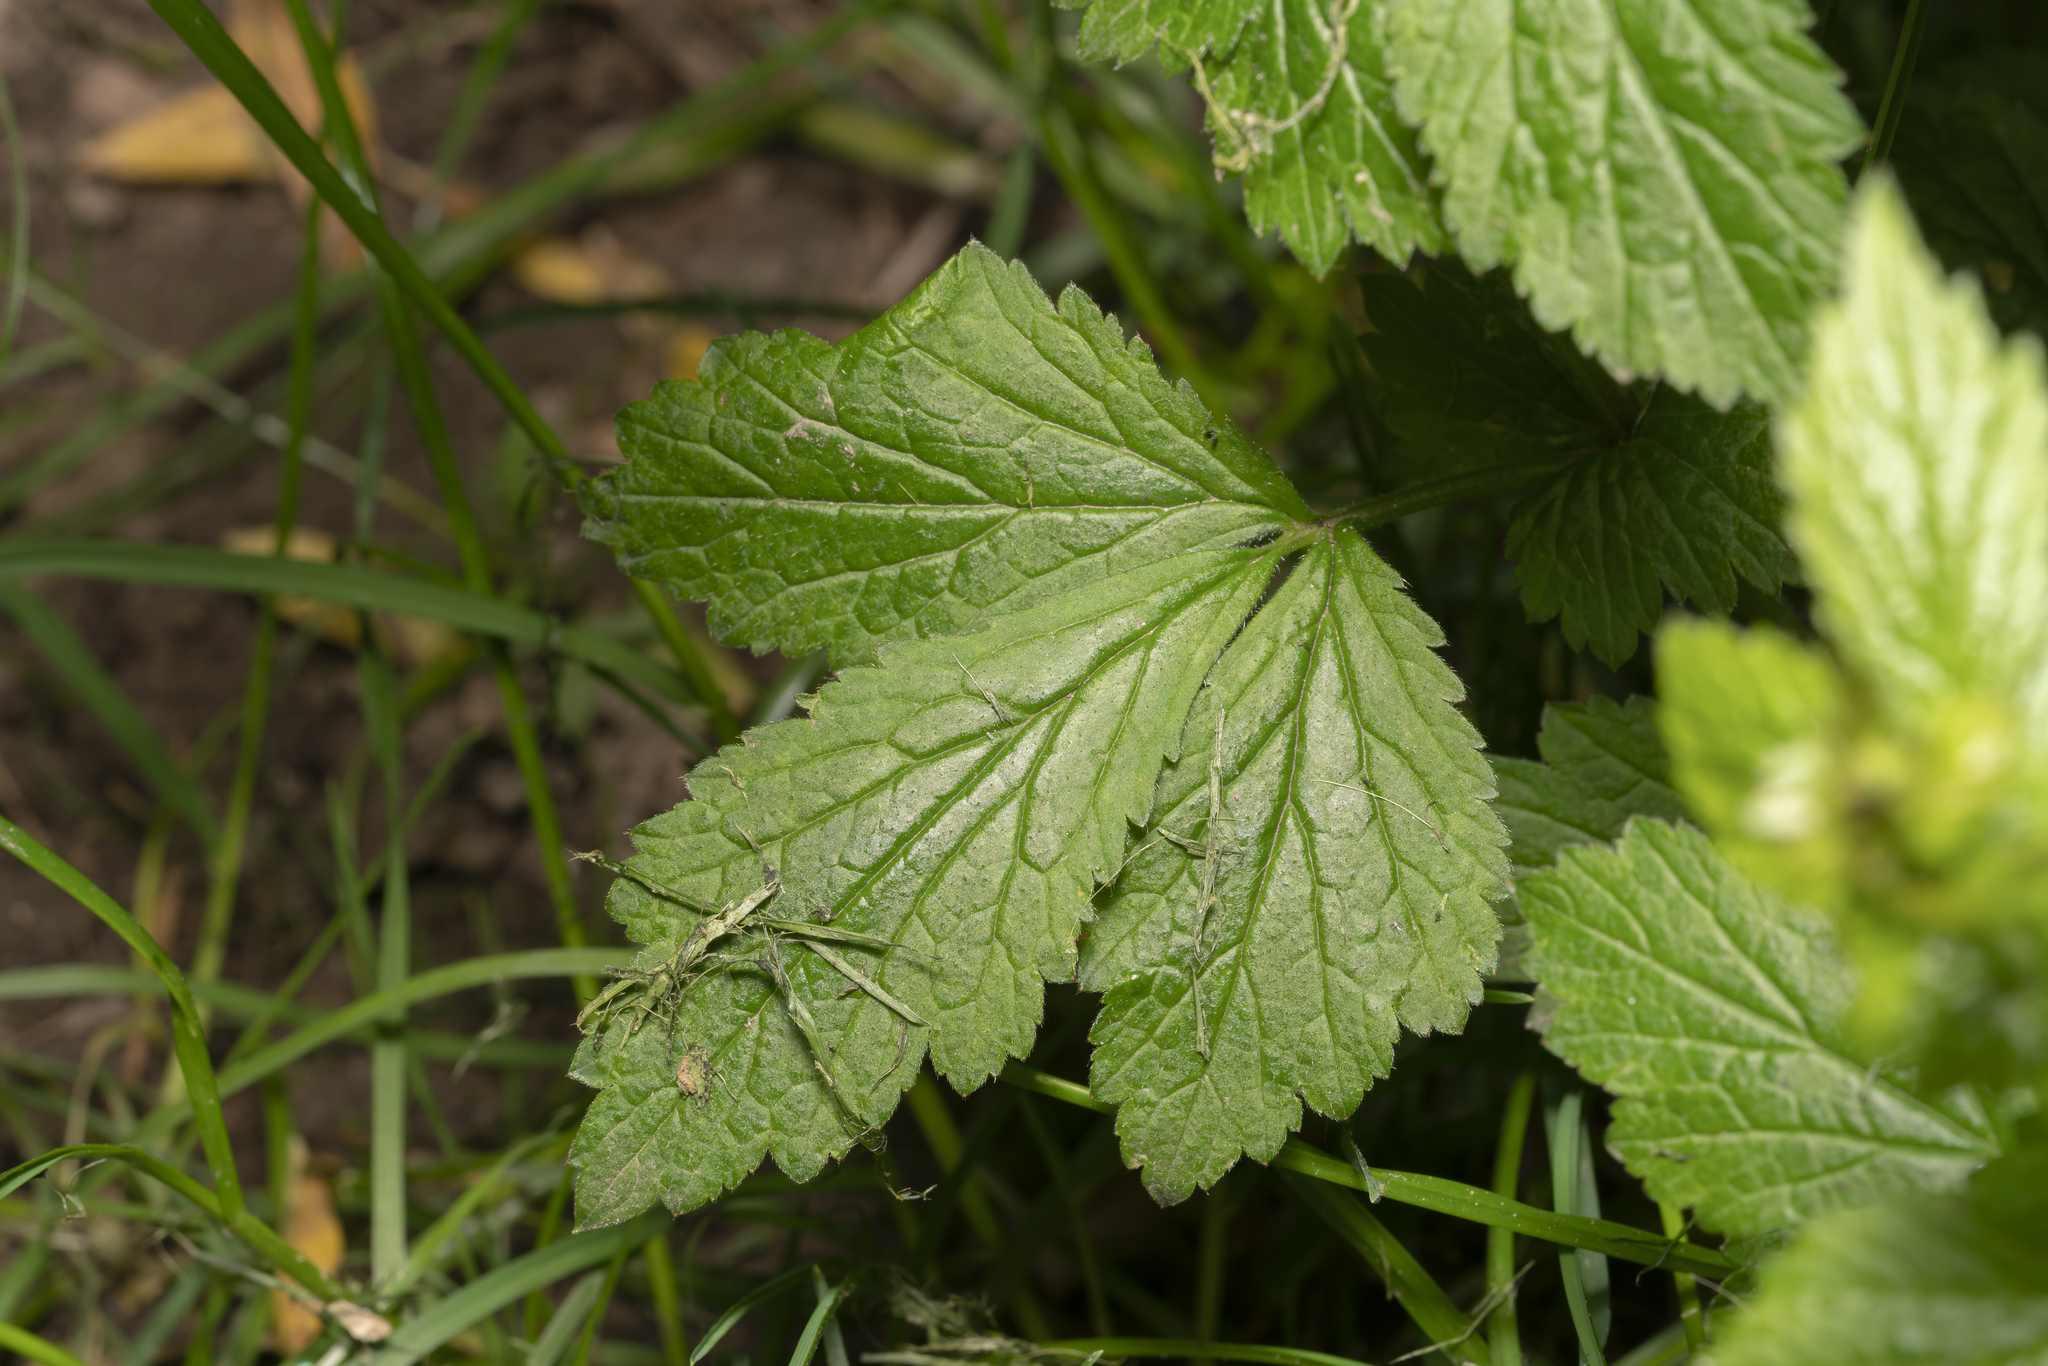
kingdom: Plantae
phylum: Tracheophyta
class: Magnoliopsida
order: Rosales
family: Rosaceae
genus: Geum
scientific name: Geum urbanum
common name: Wood avens
